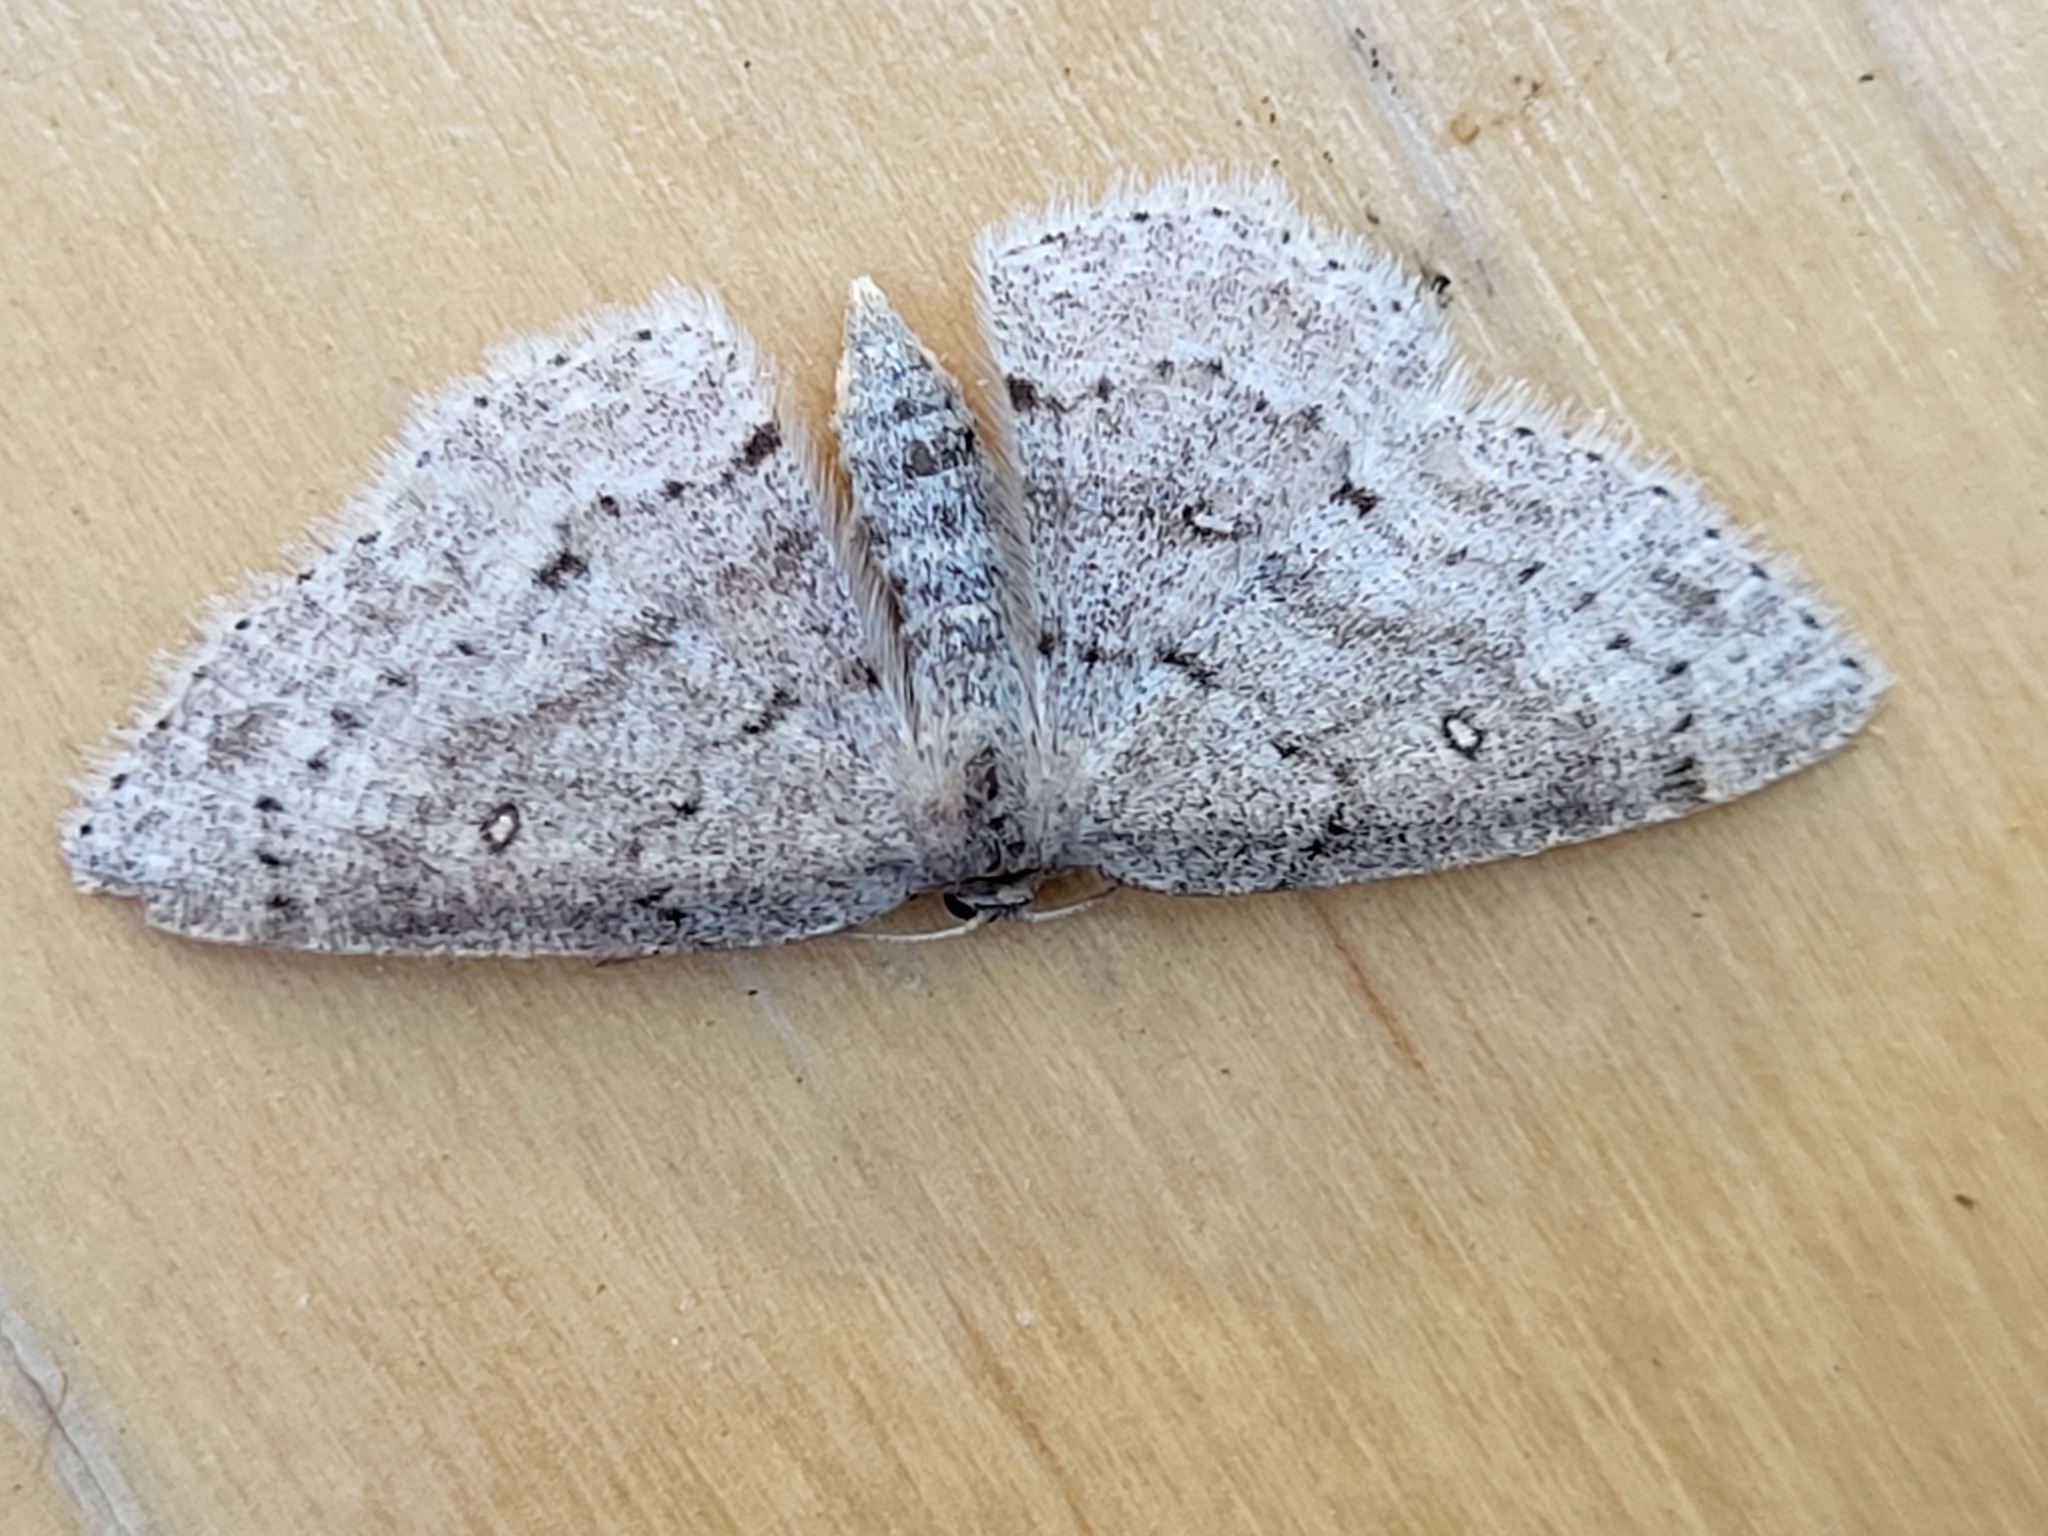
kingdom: Animalia
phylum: Arthropoda
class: Insecta
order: Lepidoptera
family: Geometridae
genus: Cyclophora
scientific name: Cyclophora pendulinaria
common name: Sweet fern geometer
